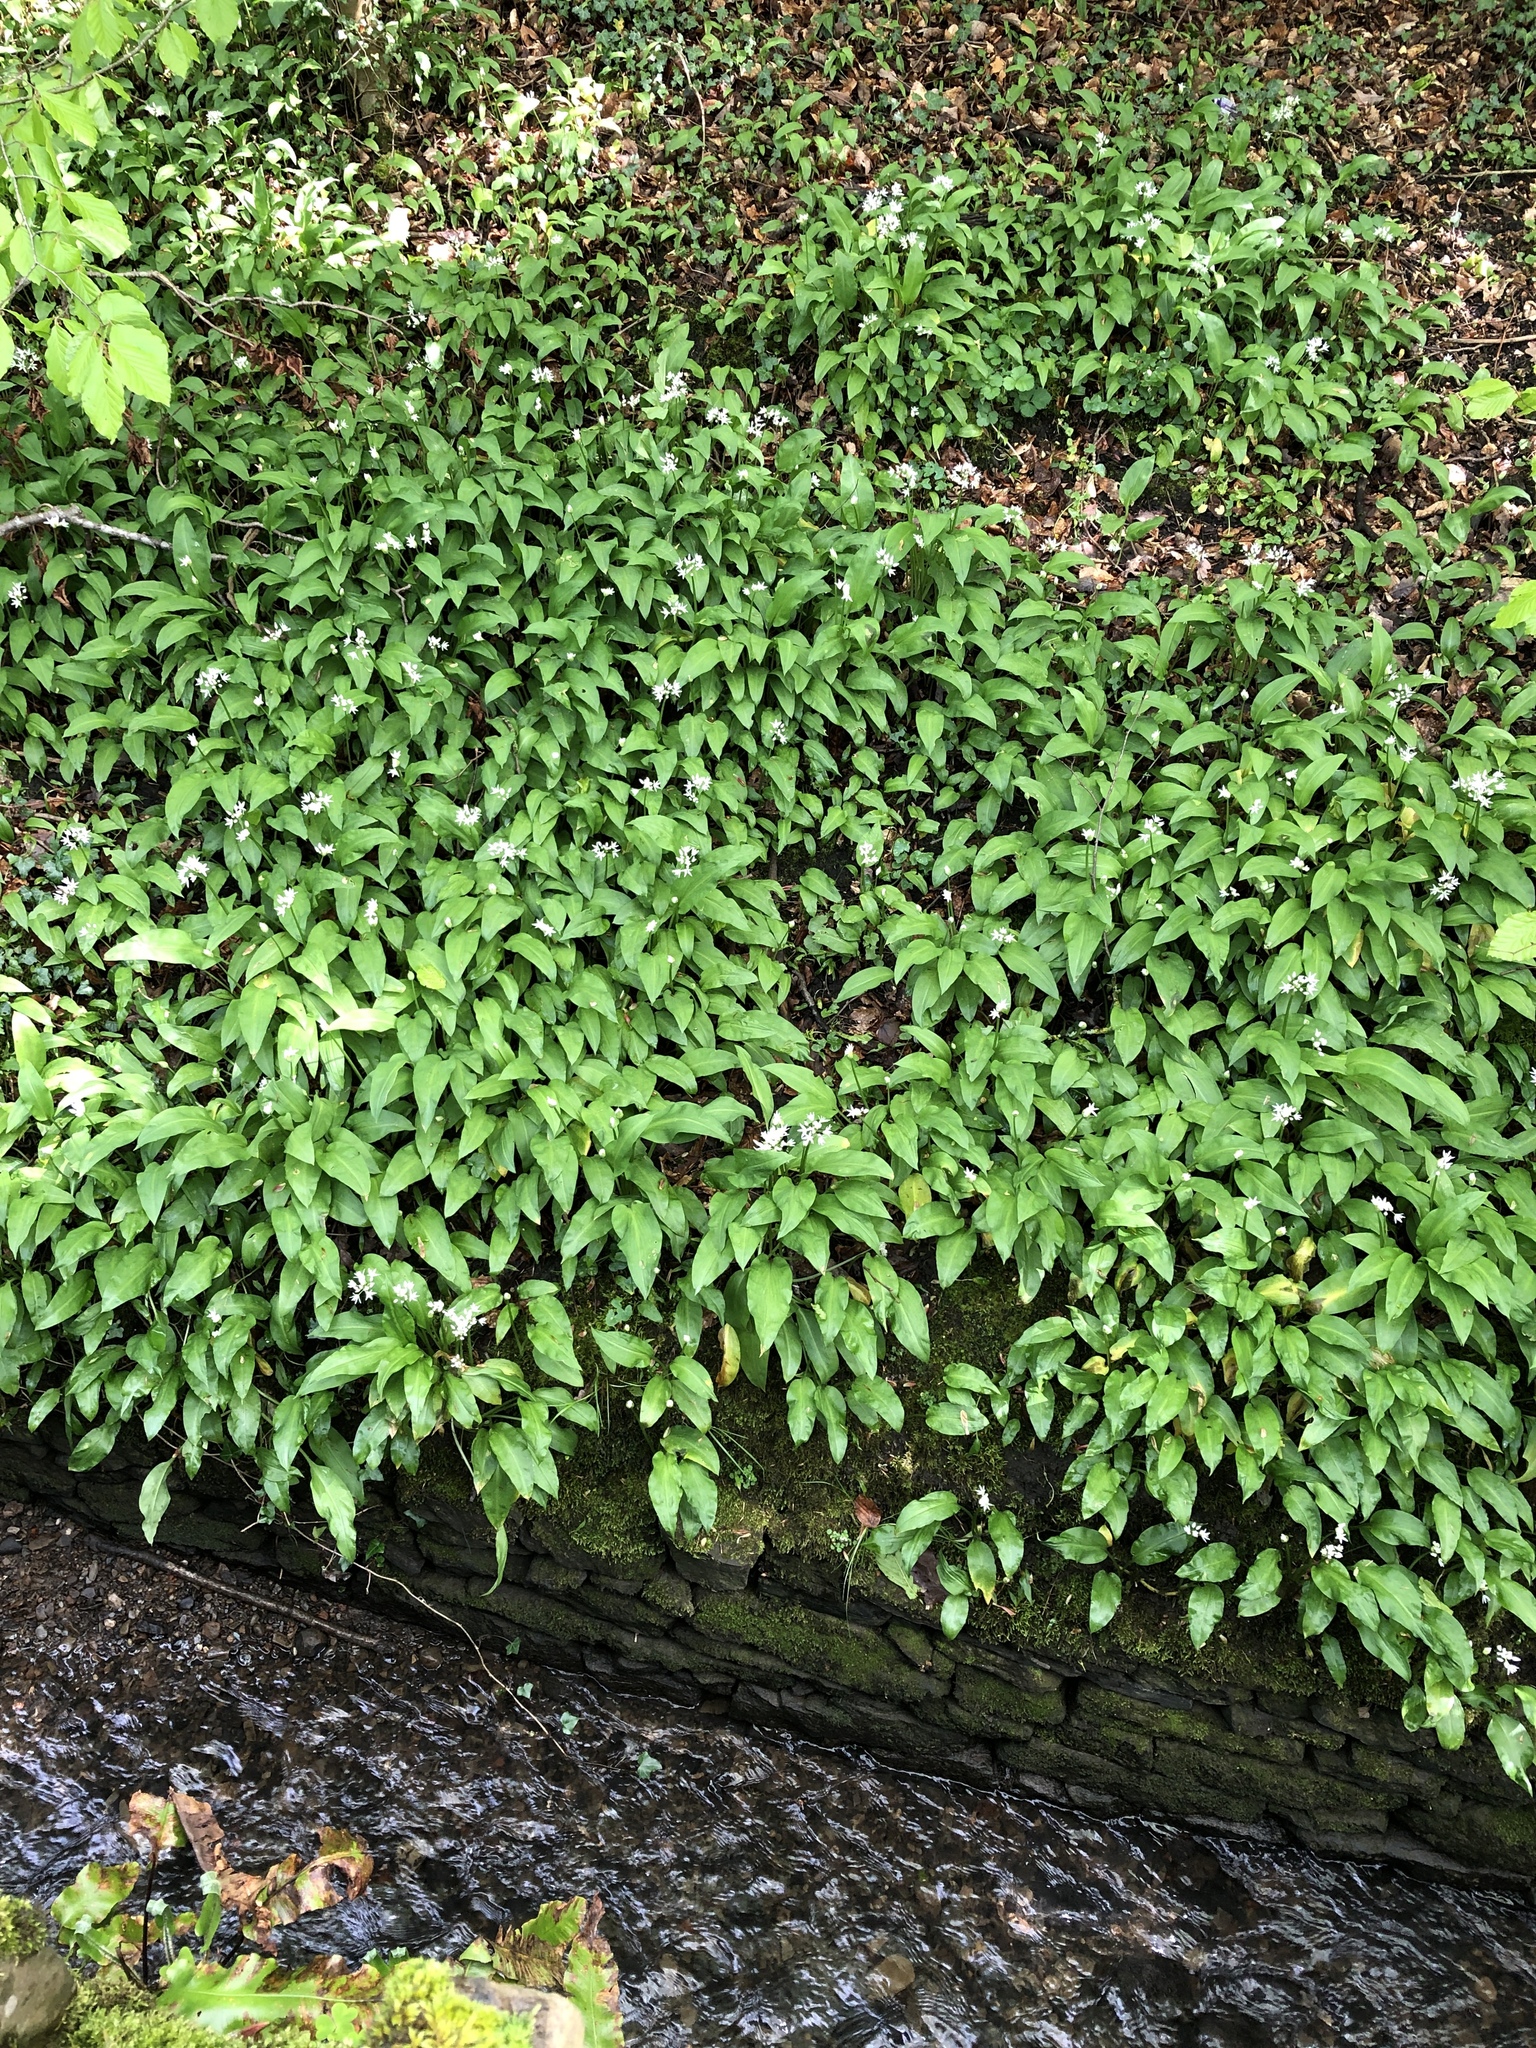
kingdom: Plantae
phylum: Tracheophyta
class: Liliopsida
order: Asparagales
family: Amaryllidaceae
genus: Allium
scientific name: Allium ursinum
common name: Ramsons
